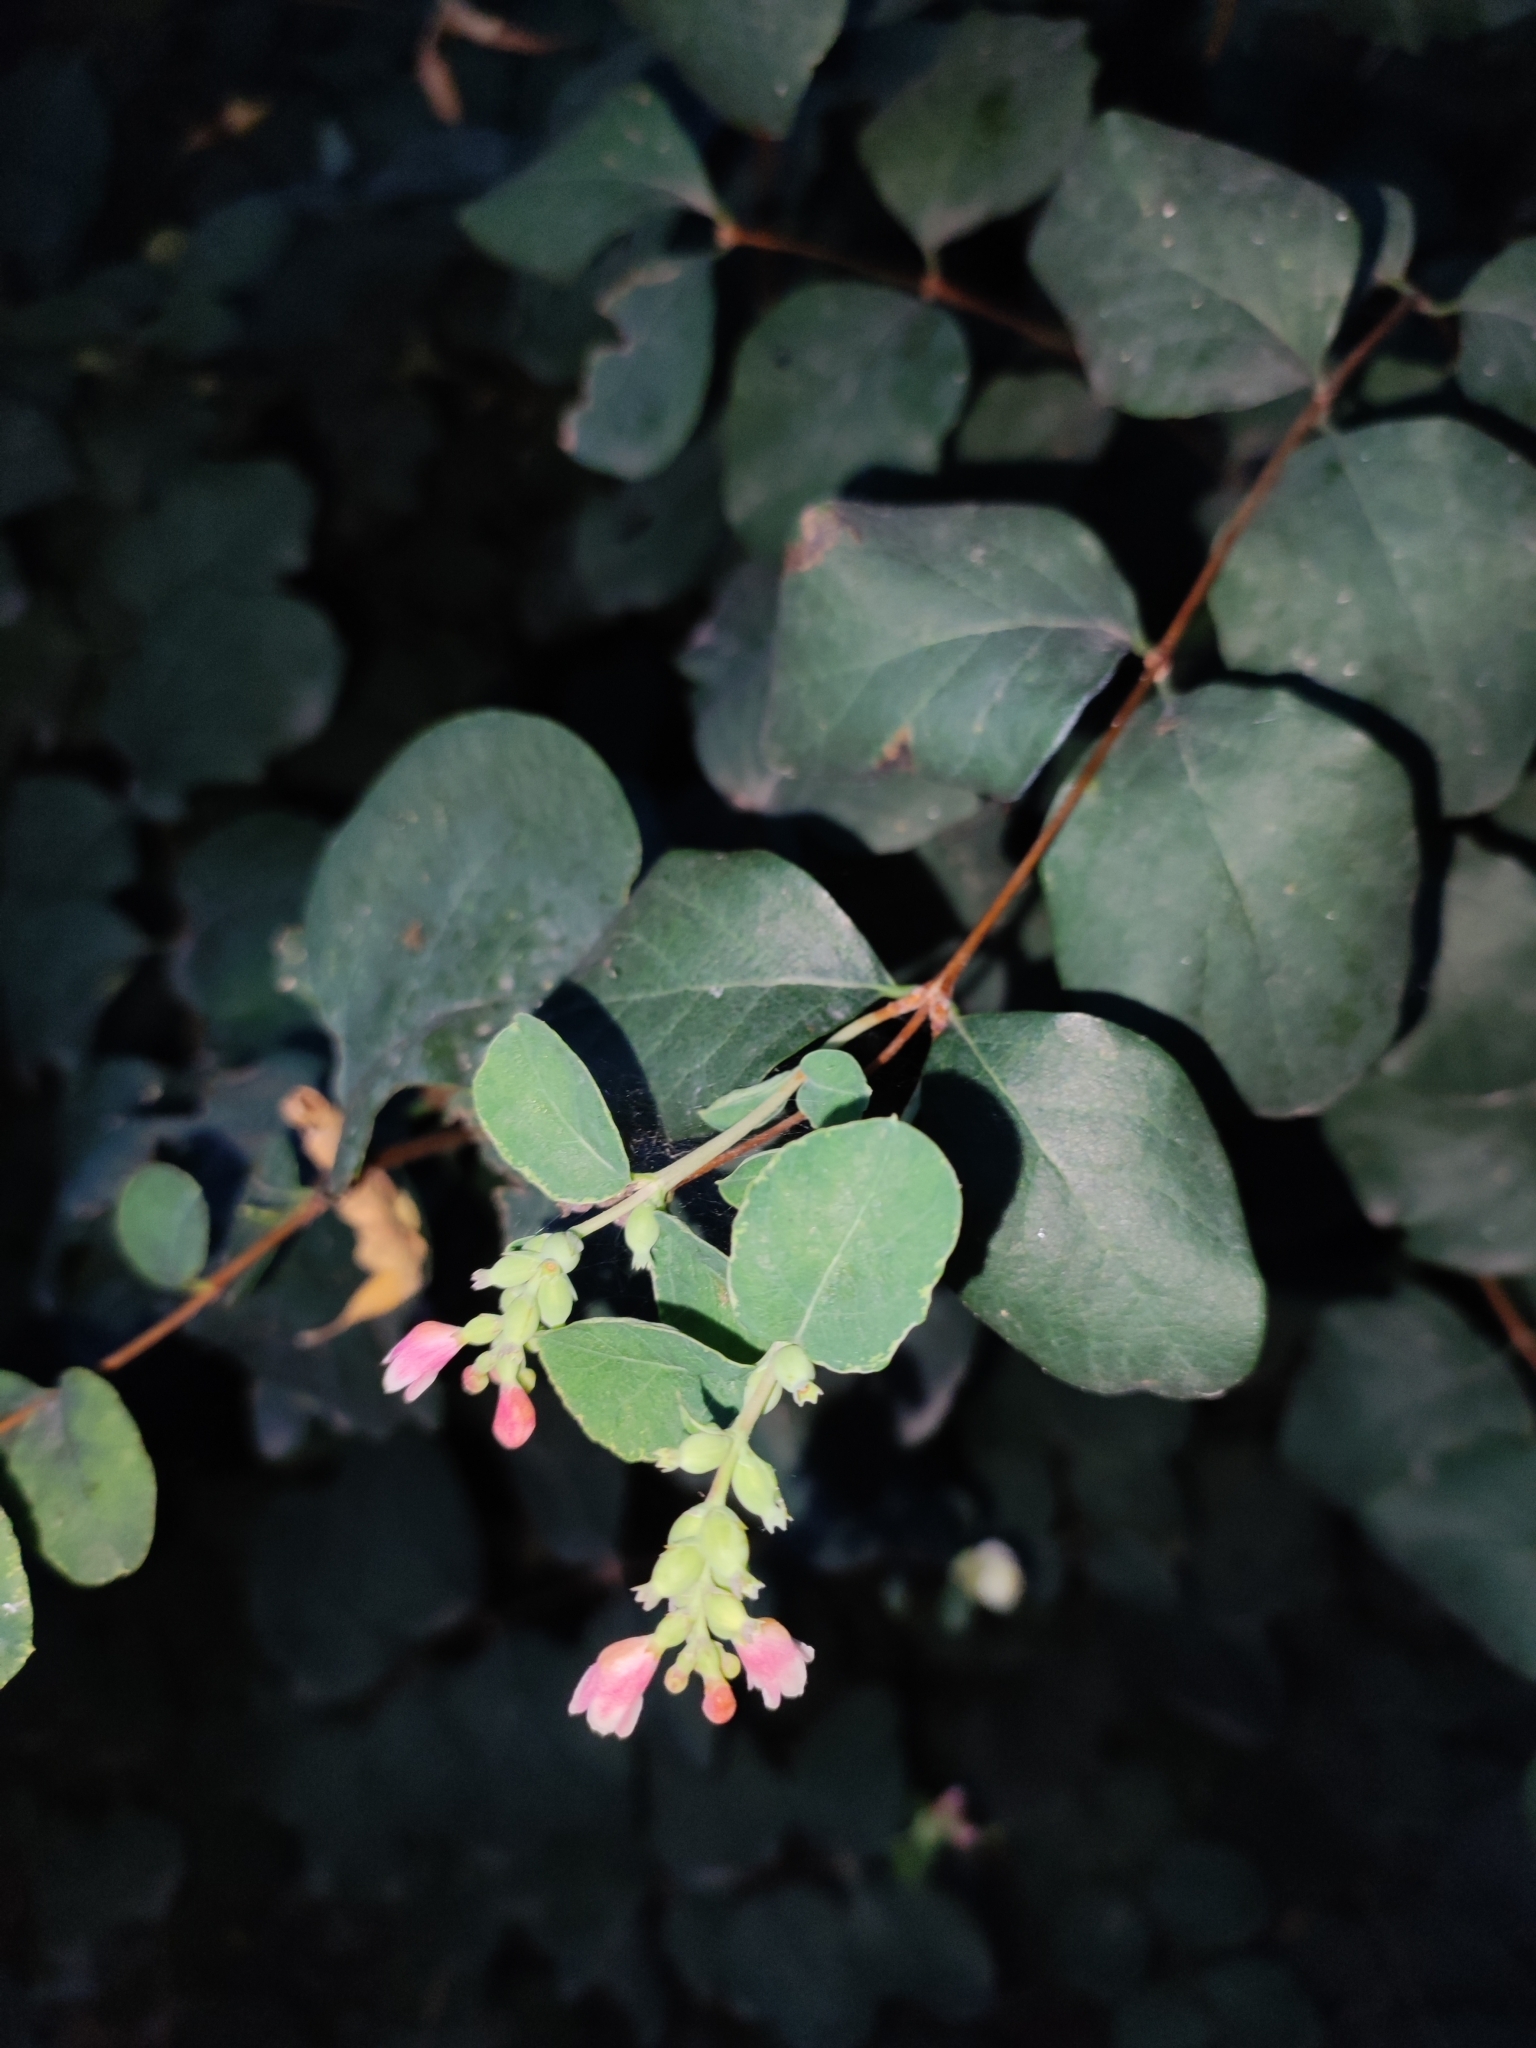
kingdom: Plantae
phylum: Tracheophyta
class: Magnoliopsida
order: Dipsacales
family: Caprifoliaceae
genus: Symphoricarpos
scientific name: Symphoricarpos albus
